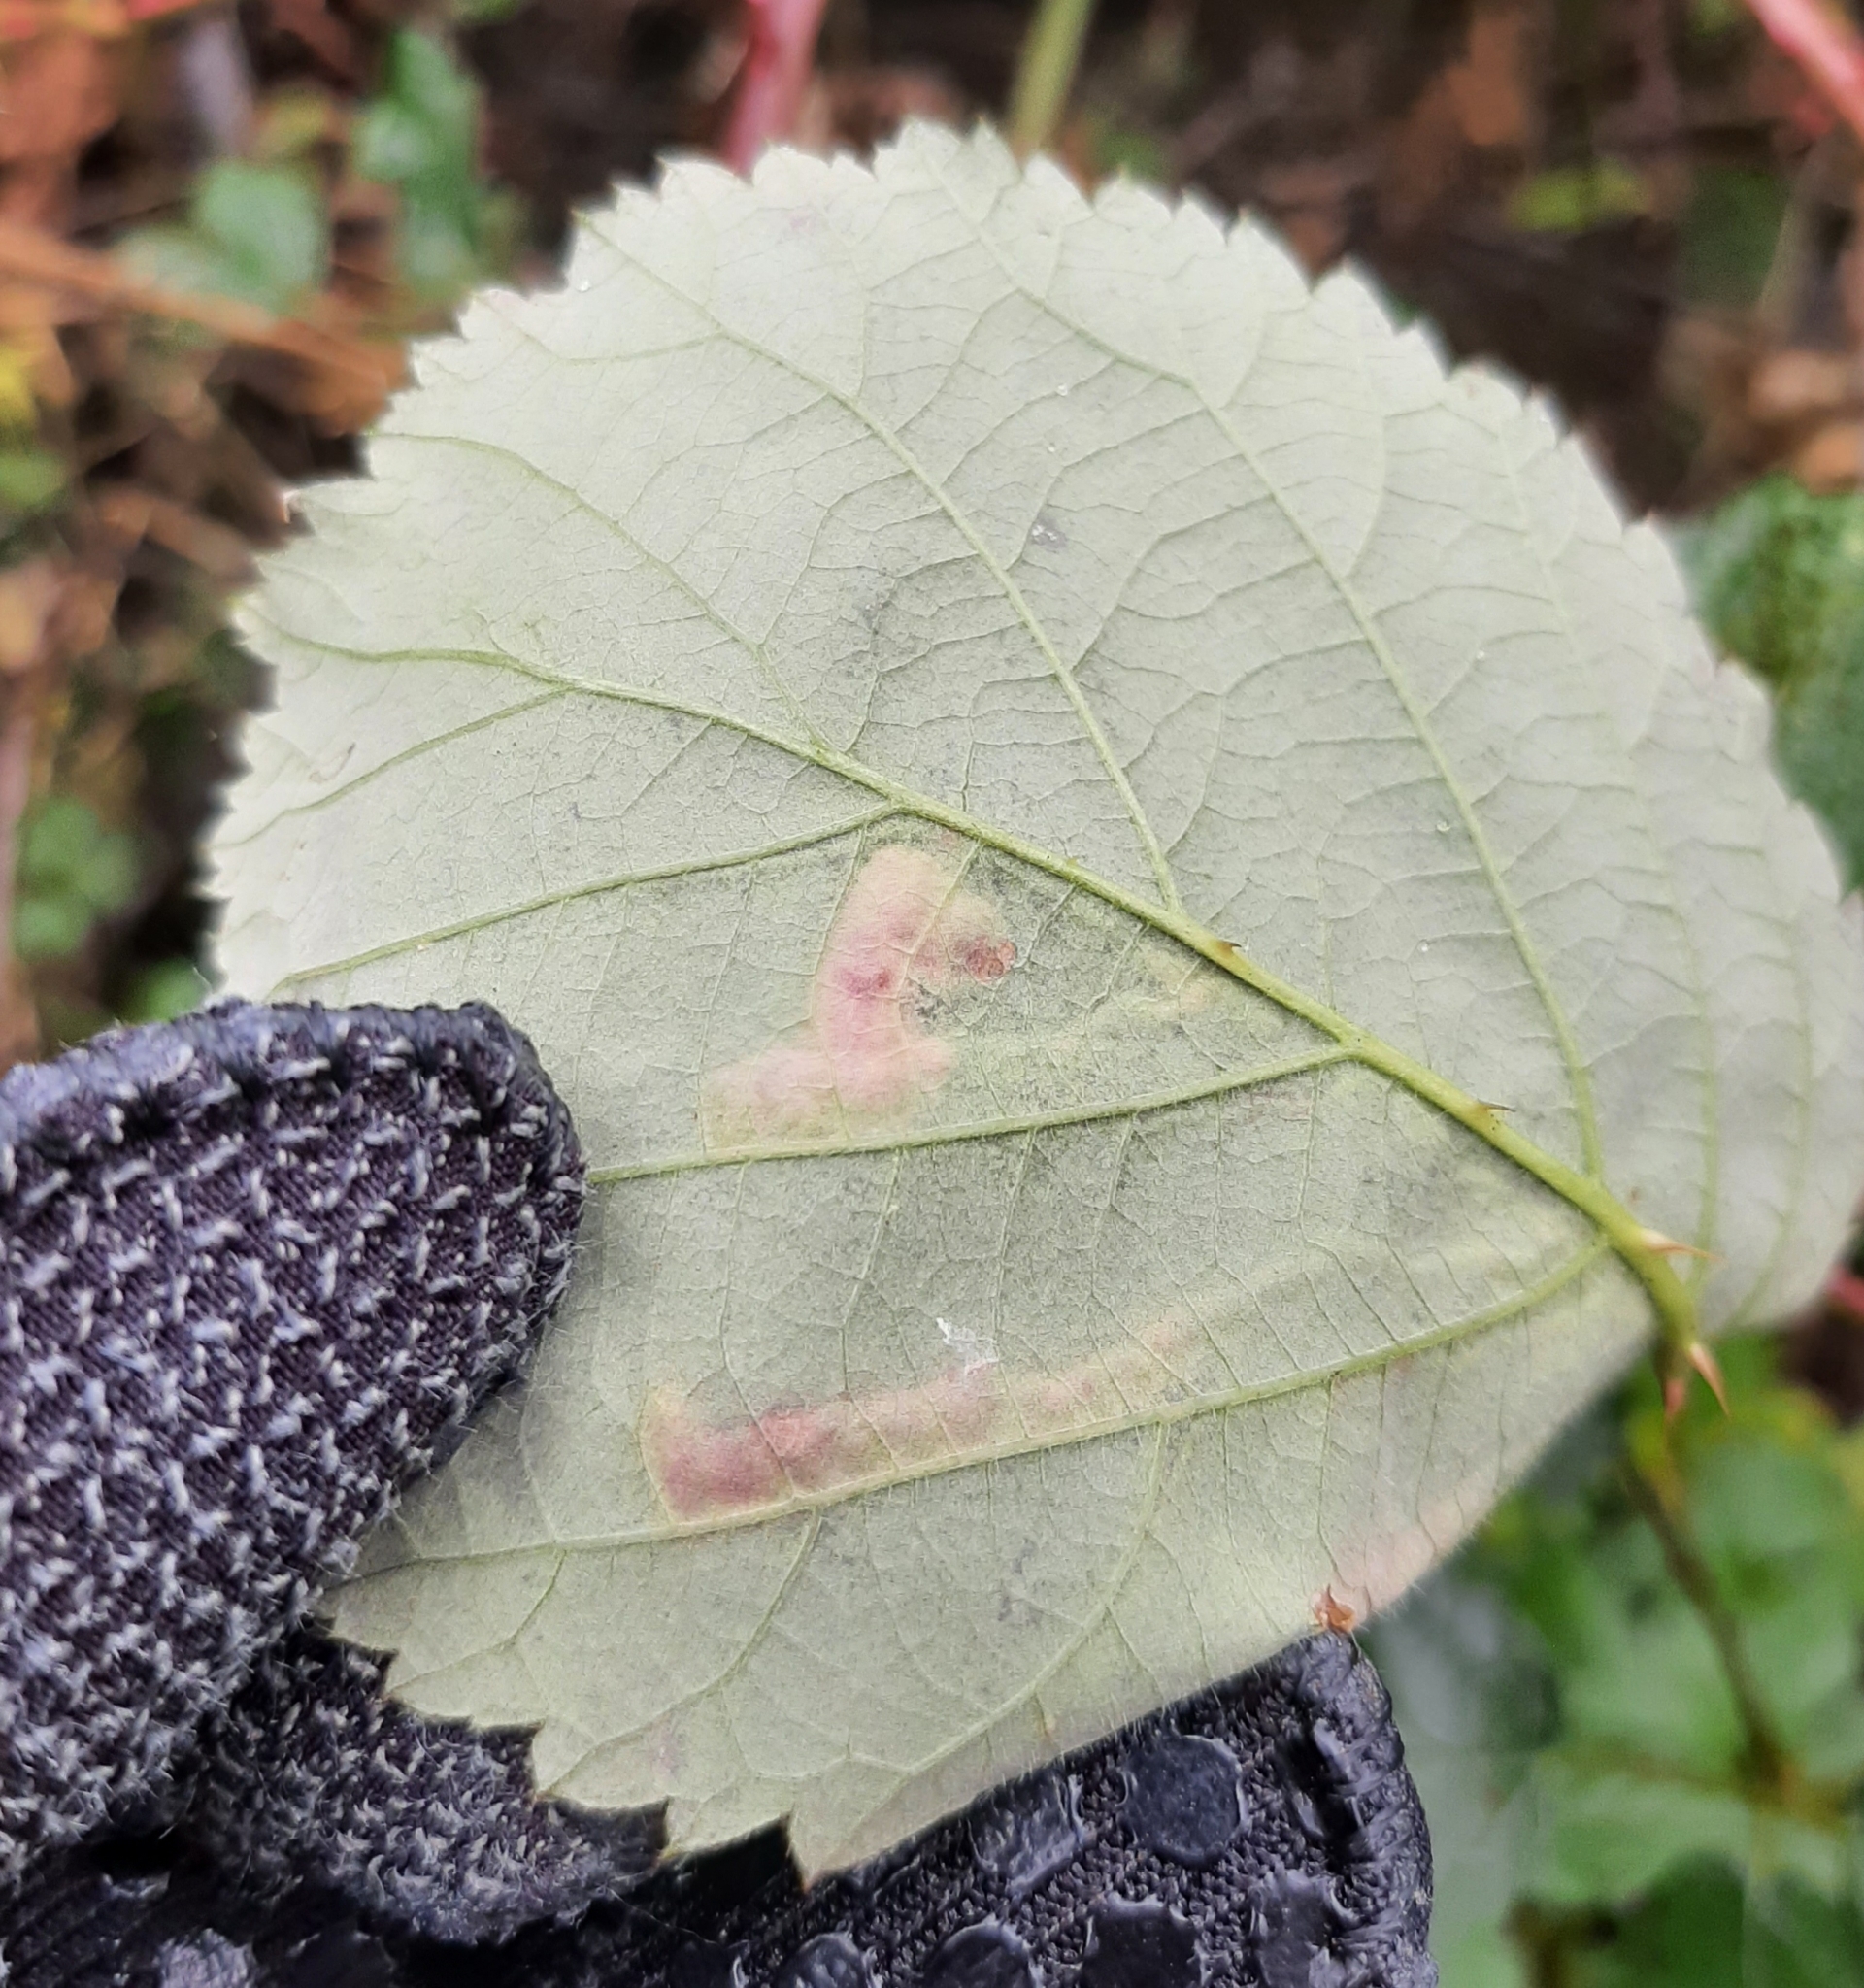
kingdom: Animalia
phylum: Arthropoda
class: Insecta
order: Diptera
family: Agromyzidae
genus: Agromyza
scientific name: Agromyza vockerothi
